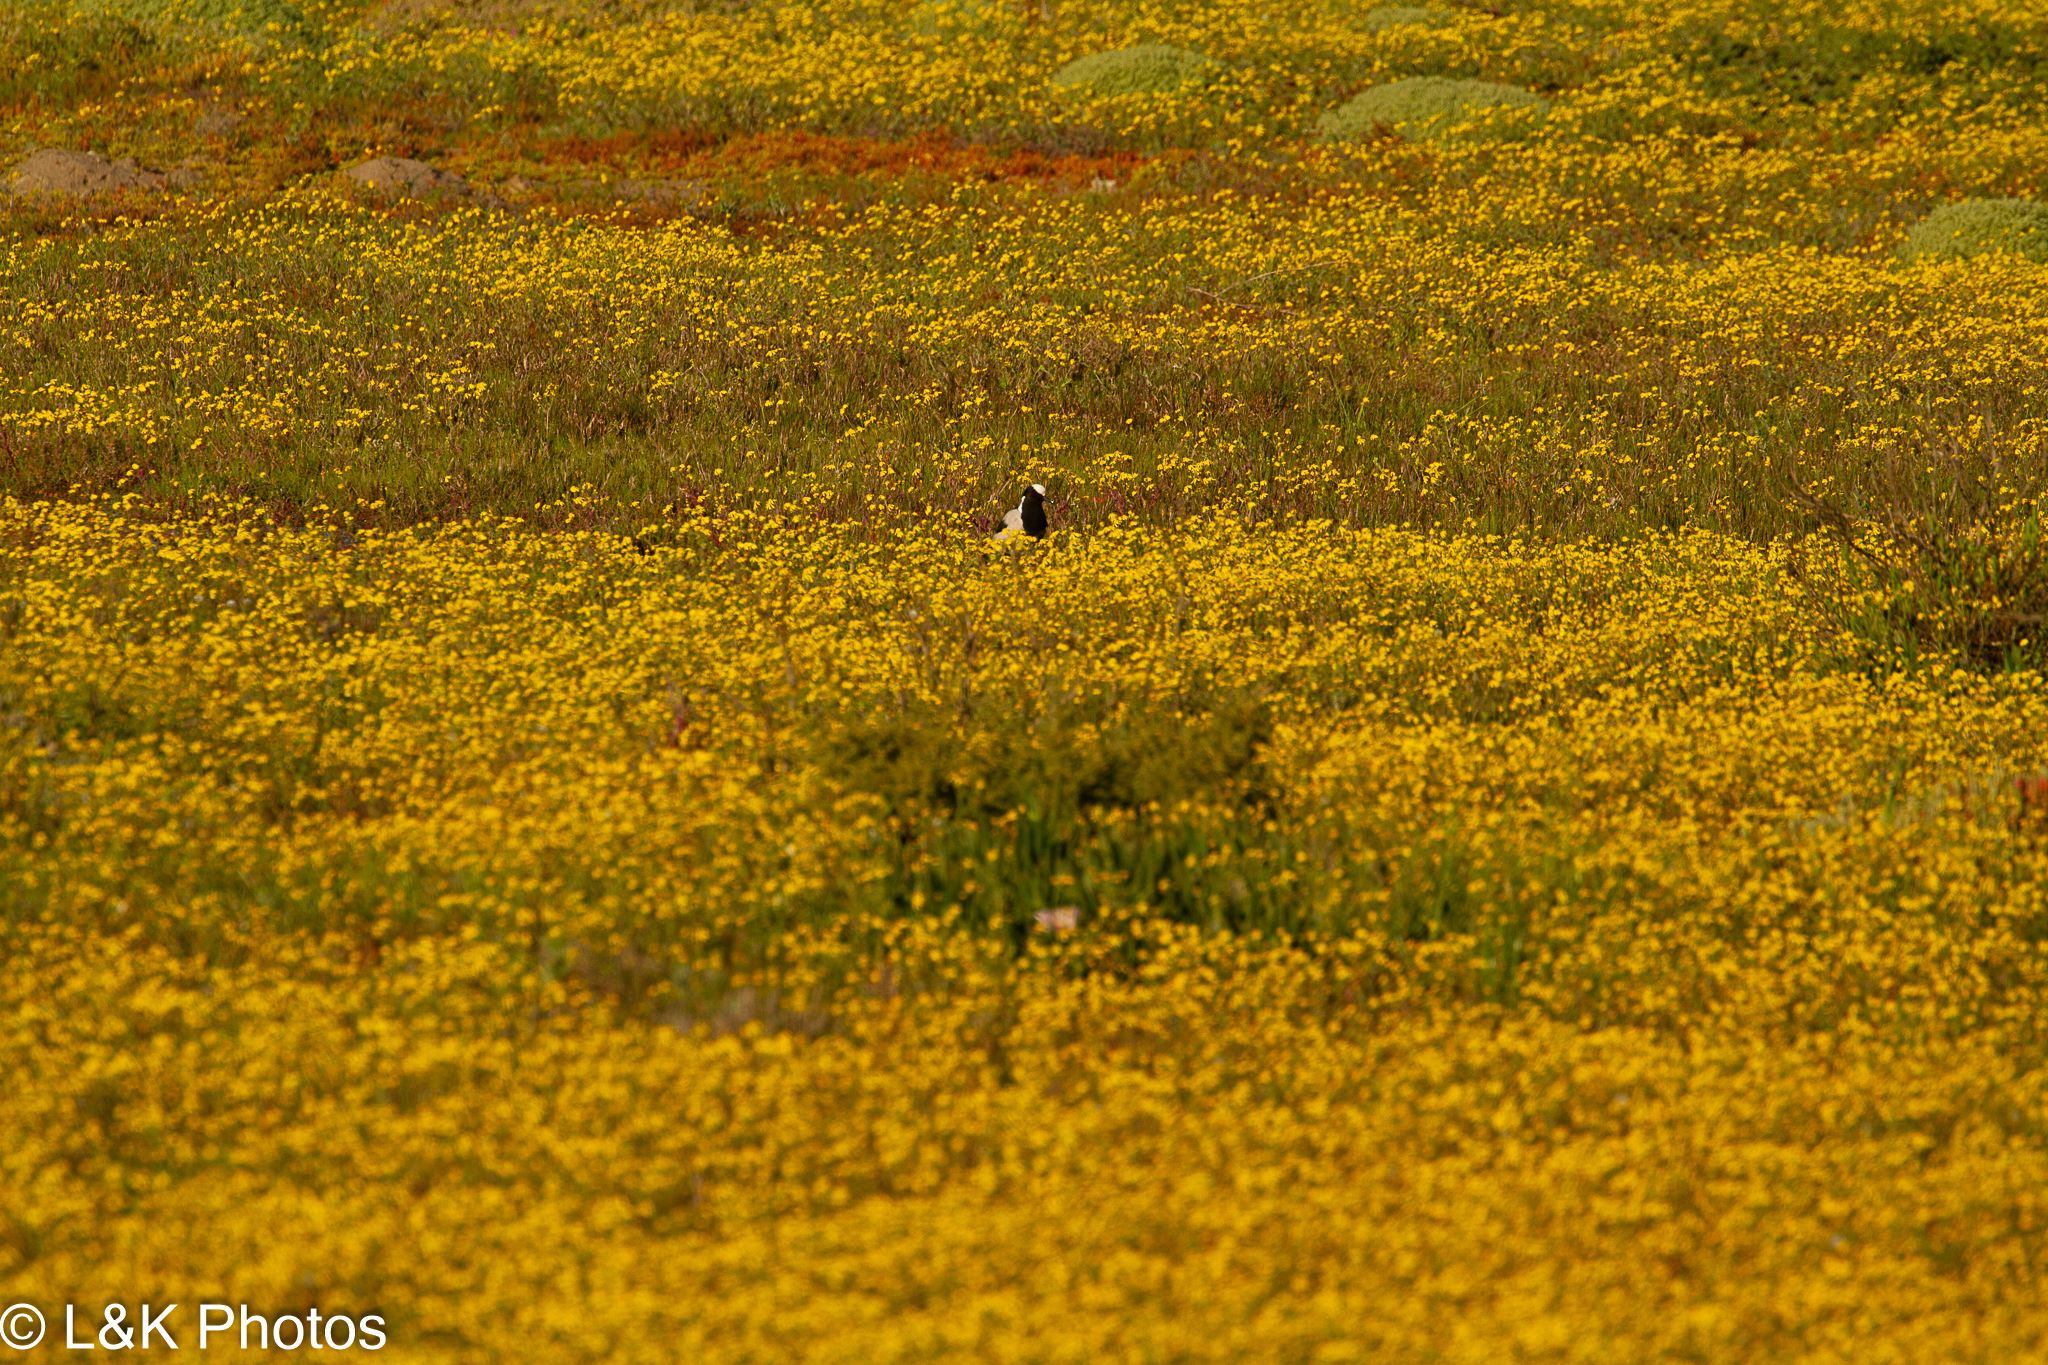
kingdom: Animalia
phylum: Chordata
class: Aves
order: Charadriiformes
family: Charadriidae
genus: Vanellus
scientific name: Vanellus armatus
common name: Blacksmith lapwing
